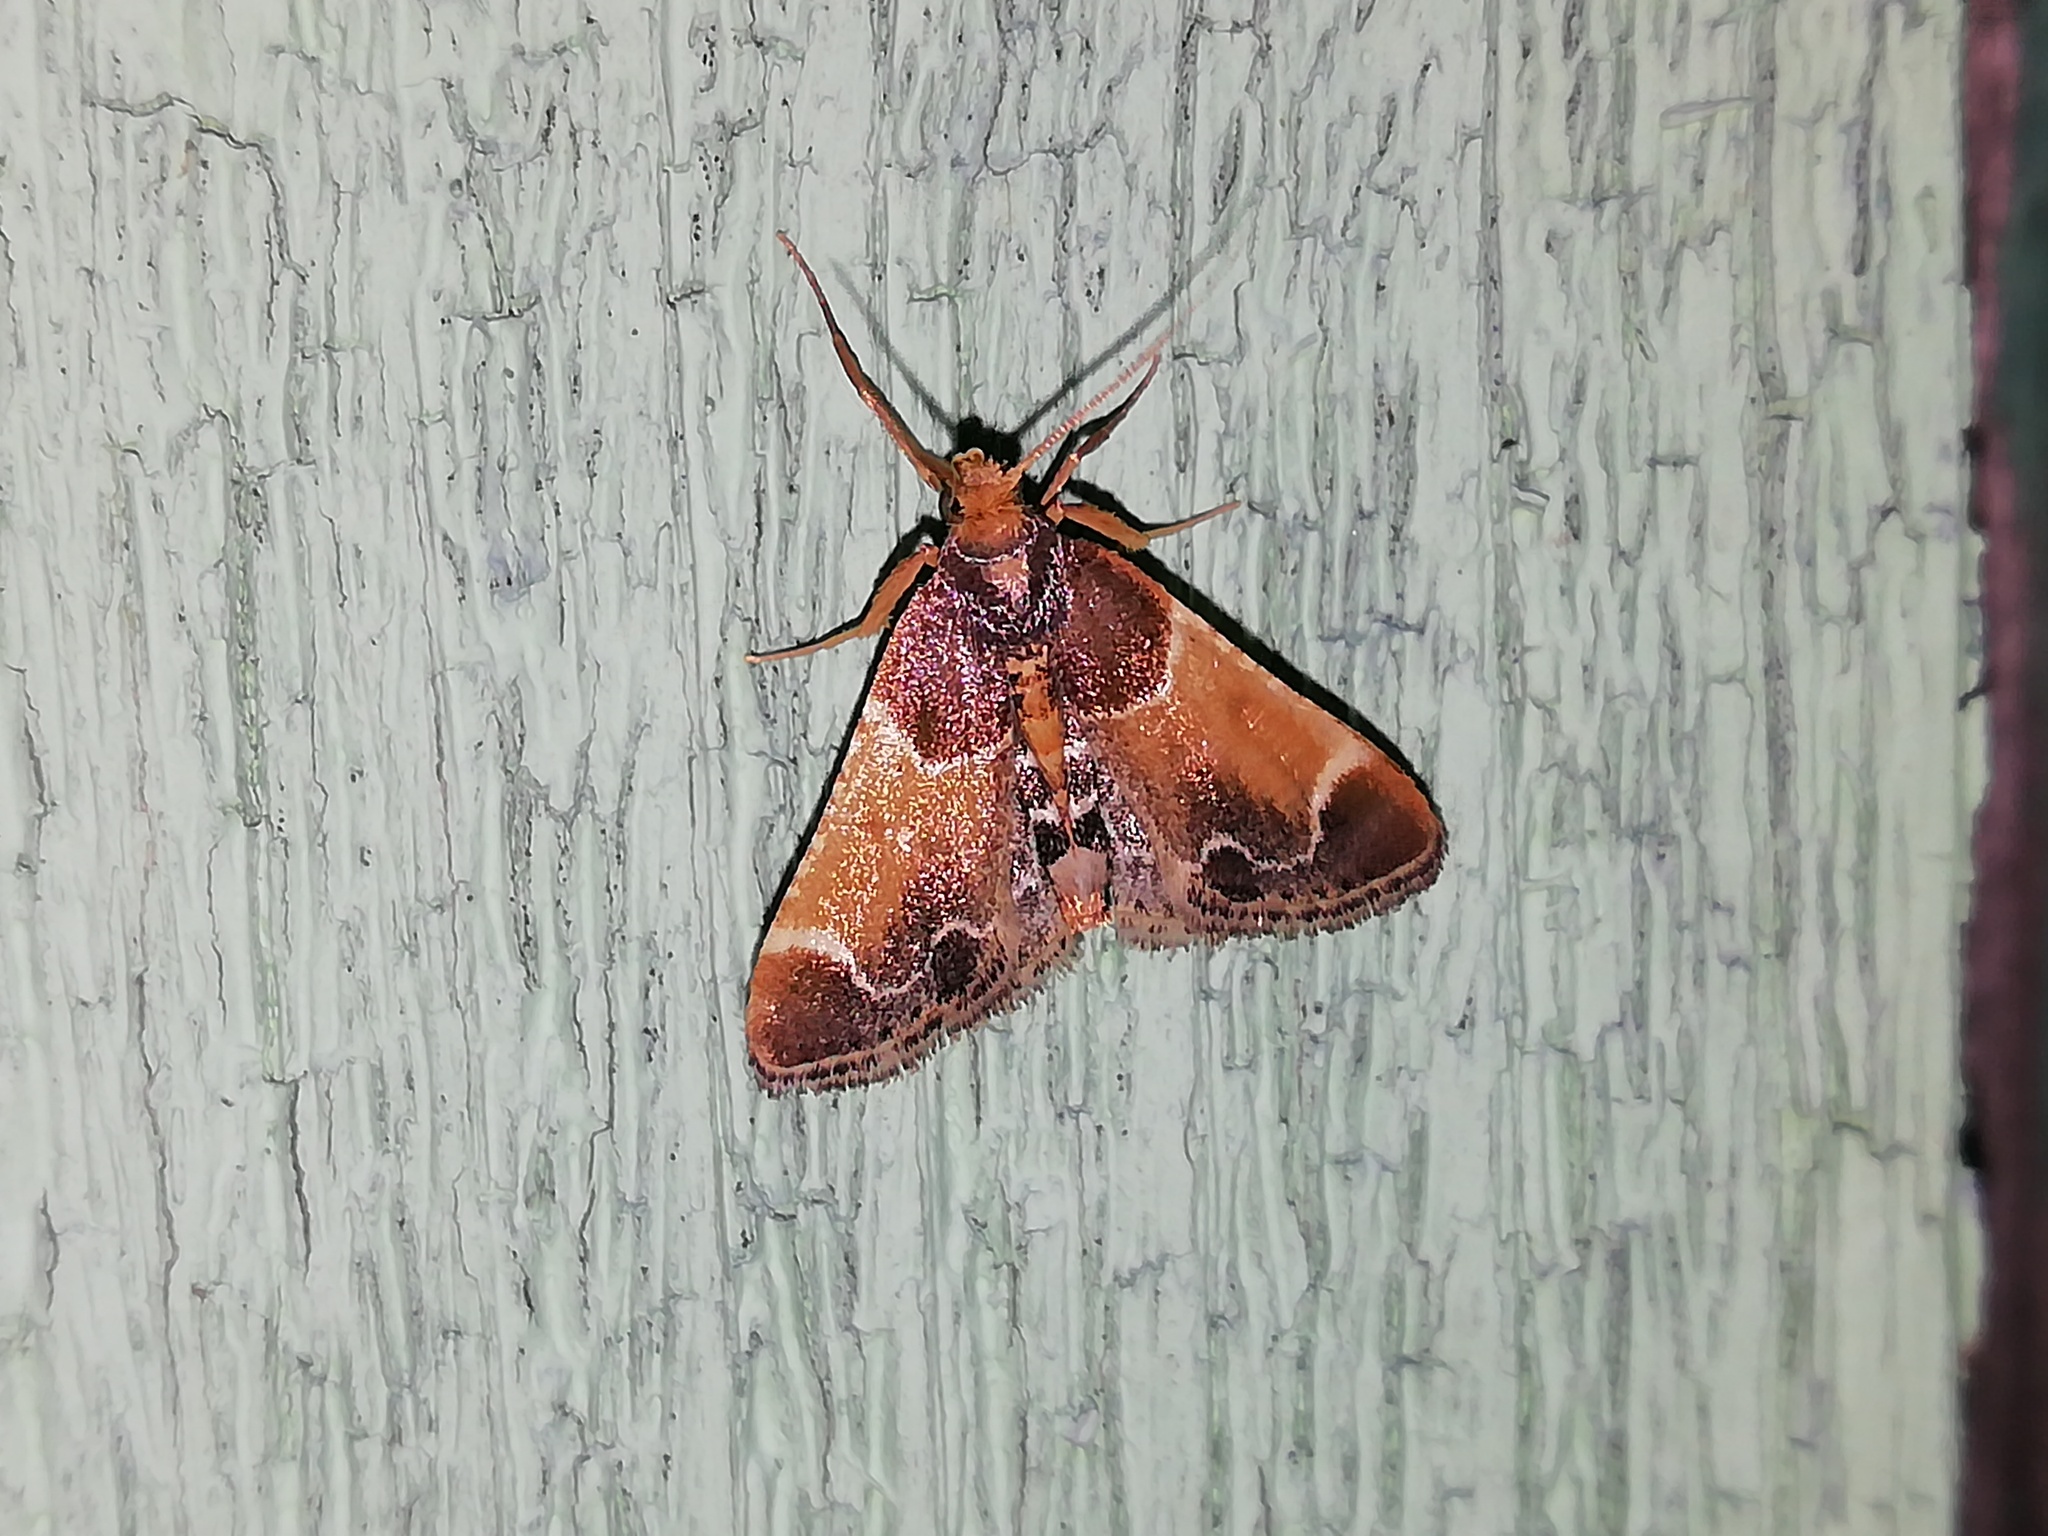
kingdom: Animalia
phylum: Arthropoda
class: Insecta
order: Lepidoptera
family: Pyralidae
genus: Pyralis
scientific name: Pyralis farinalis
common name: Meal moth
